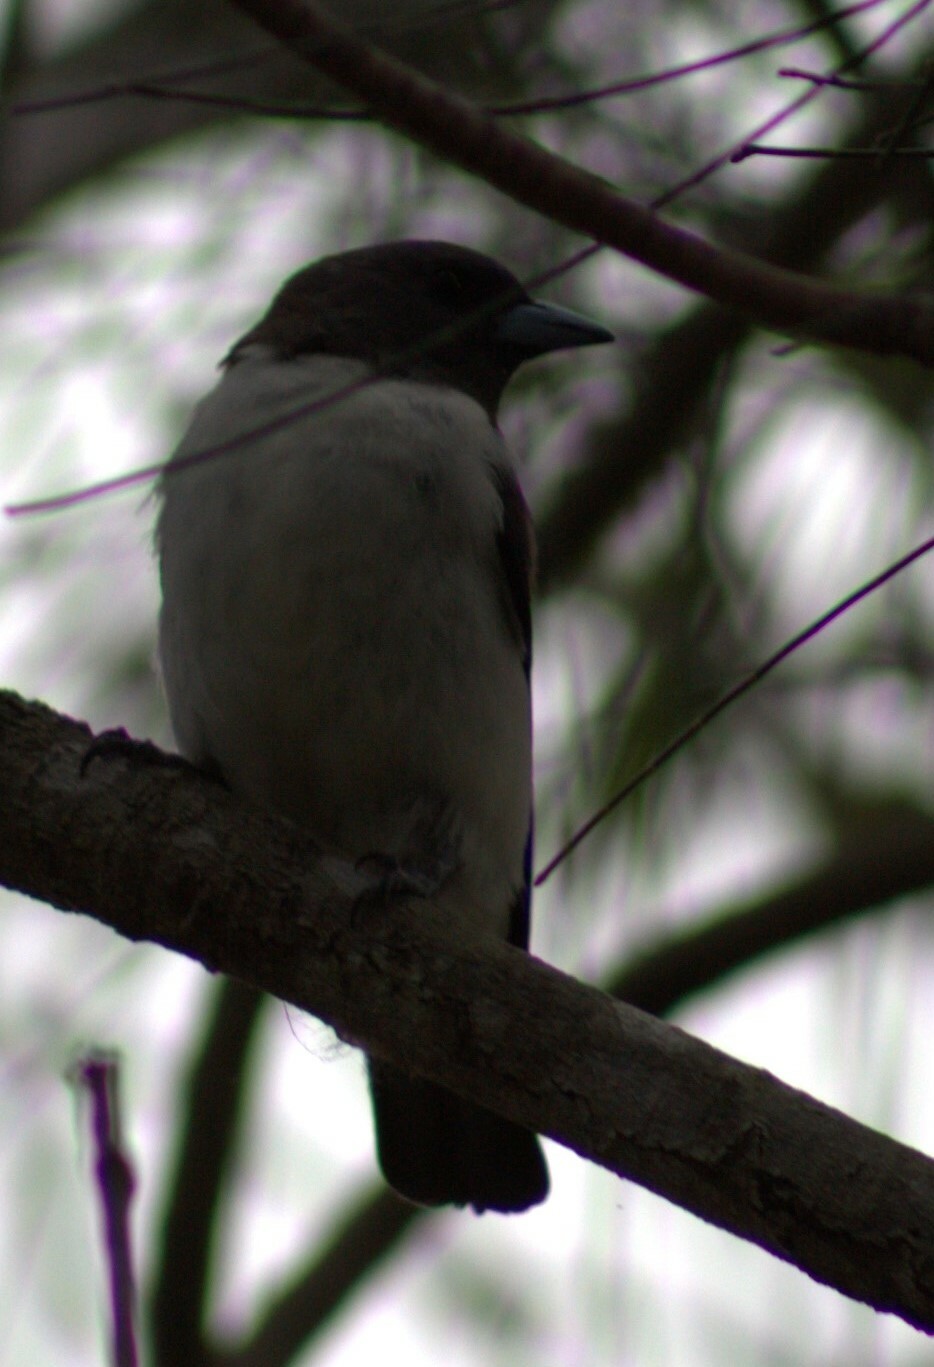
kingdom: Animalia
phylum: Chordata
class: Aves
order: Passeriformes
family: Artamidae
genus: Artamus
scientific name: Artamus leucoryn
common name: White-breasted woodswallow
